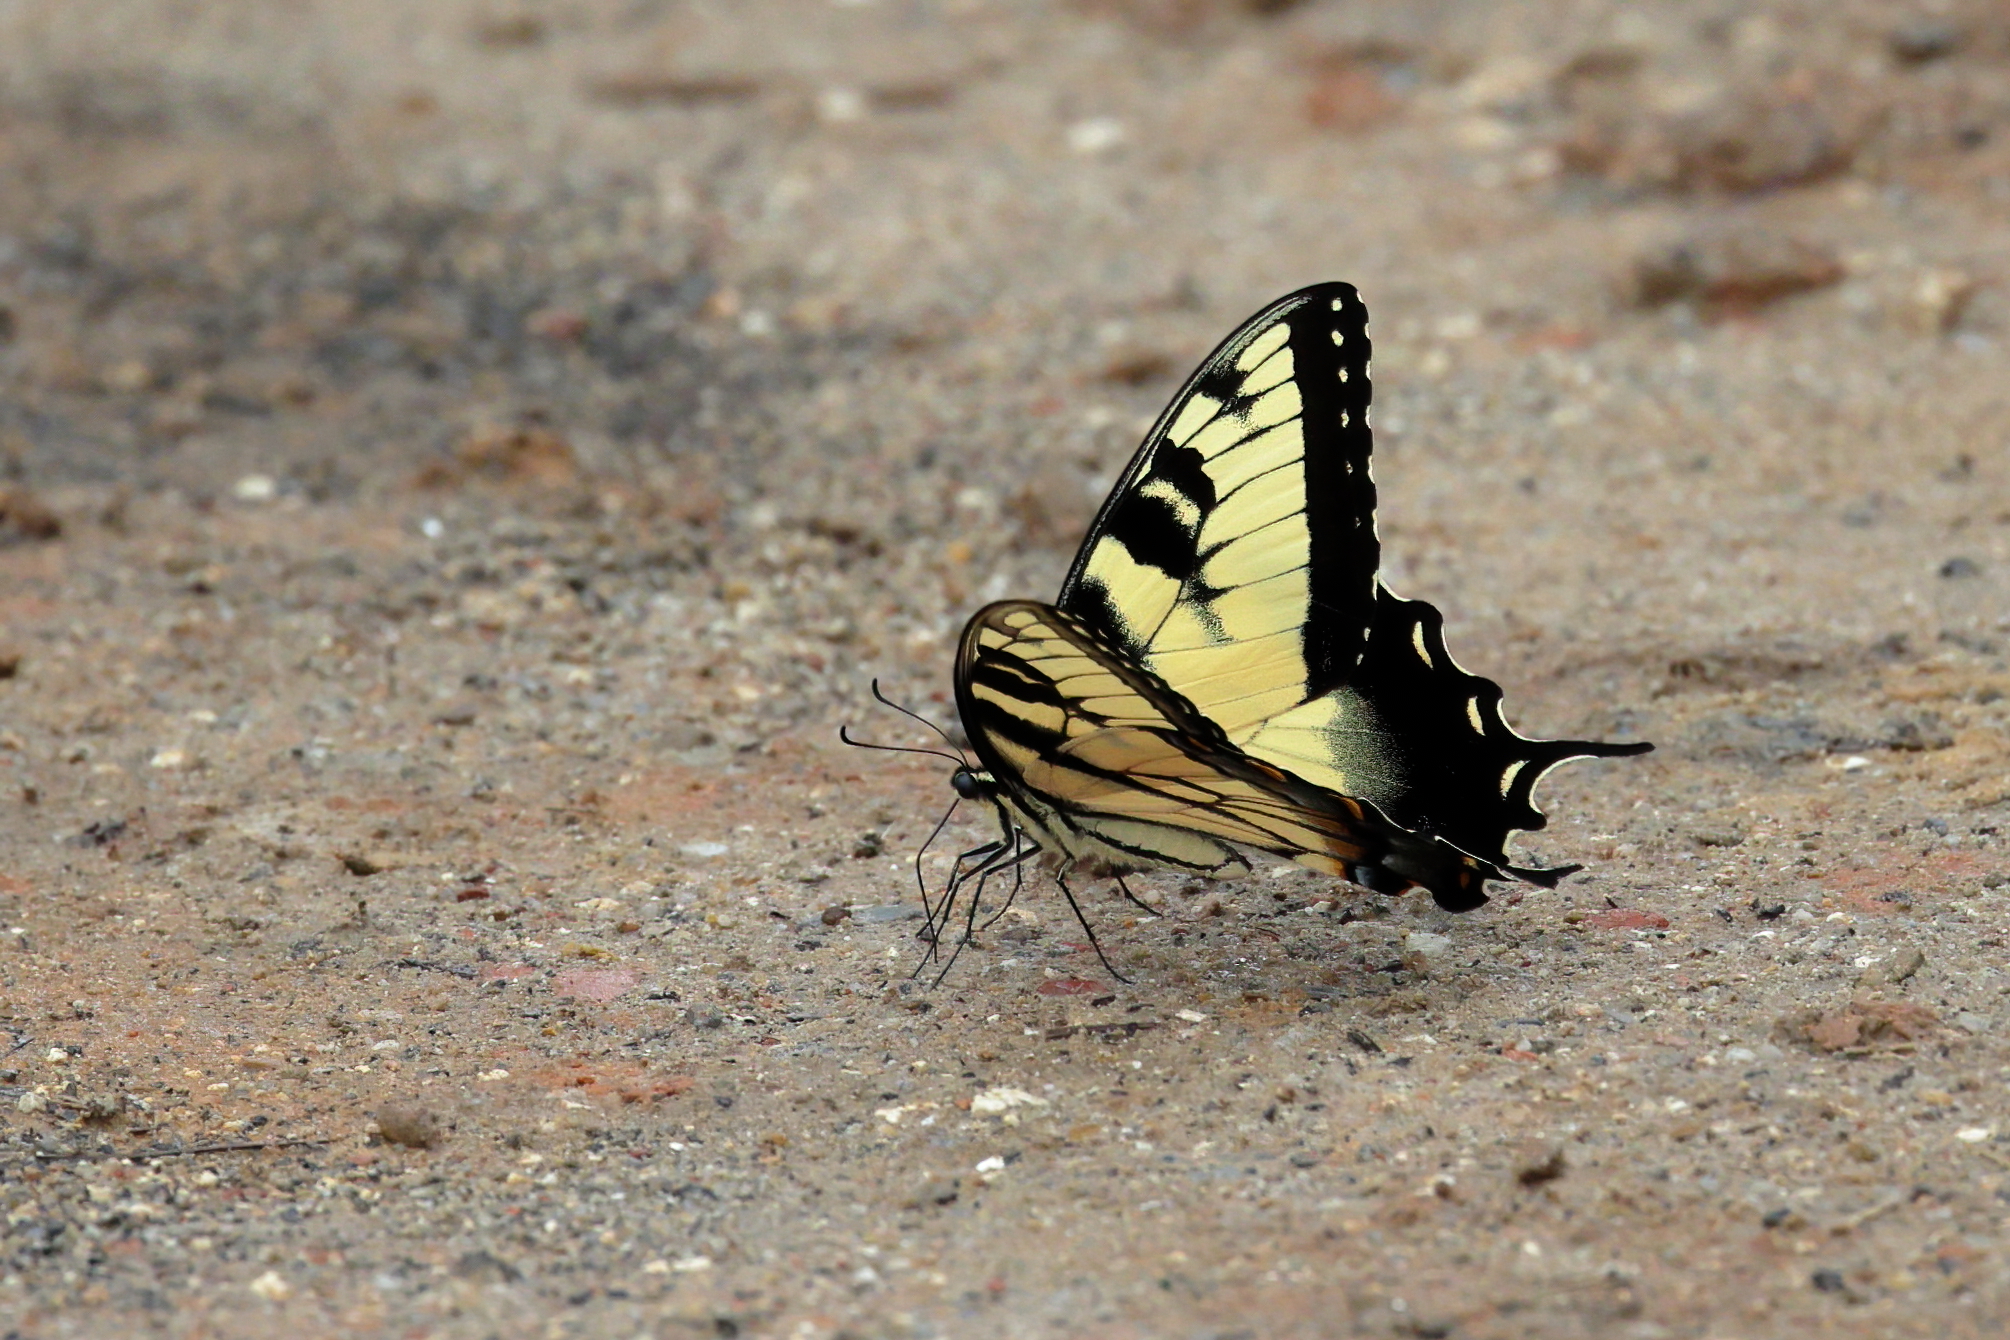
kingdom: Animalia
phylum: Arthropoda
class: Insecta
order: Lepidoptera
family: Papilionidae
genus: Papilio
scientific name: Papilio glaucus
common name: Tiger swallowtail
